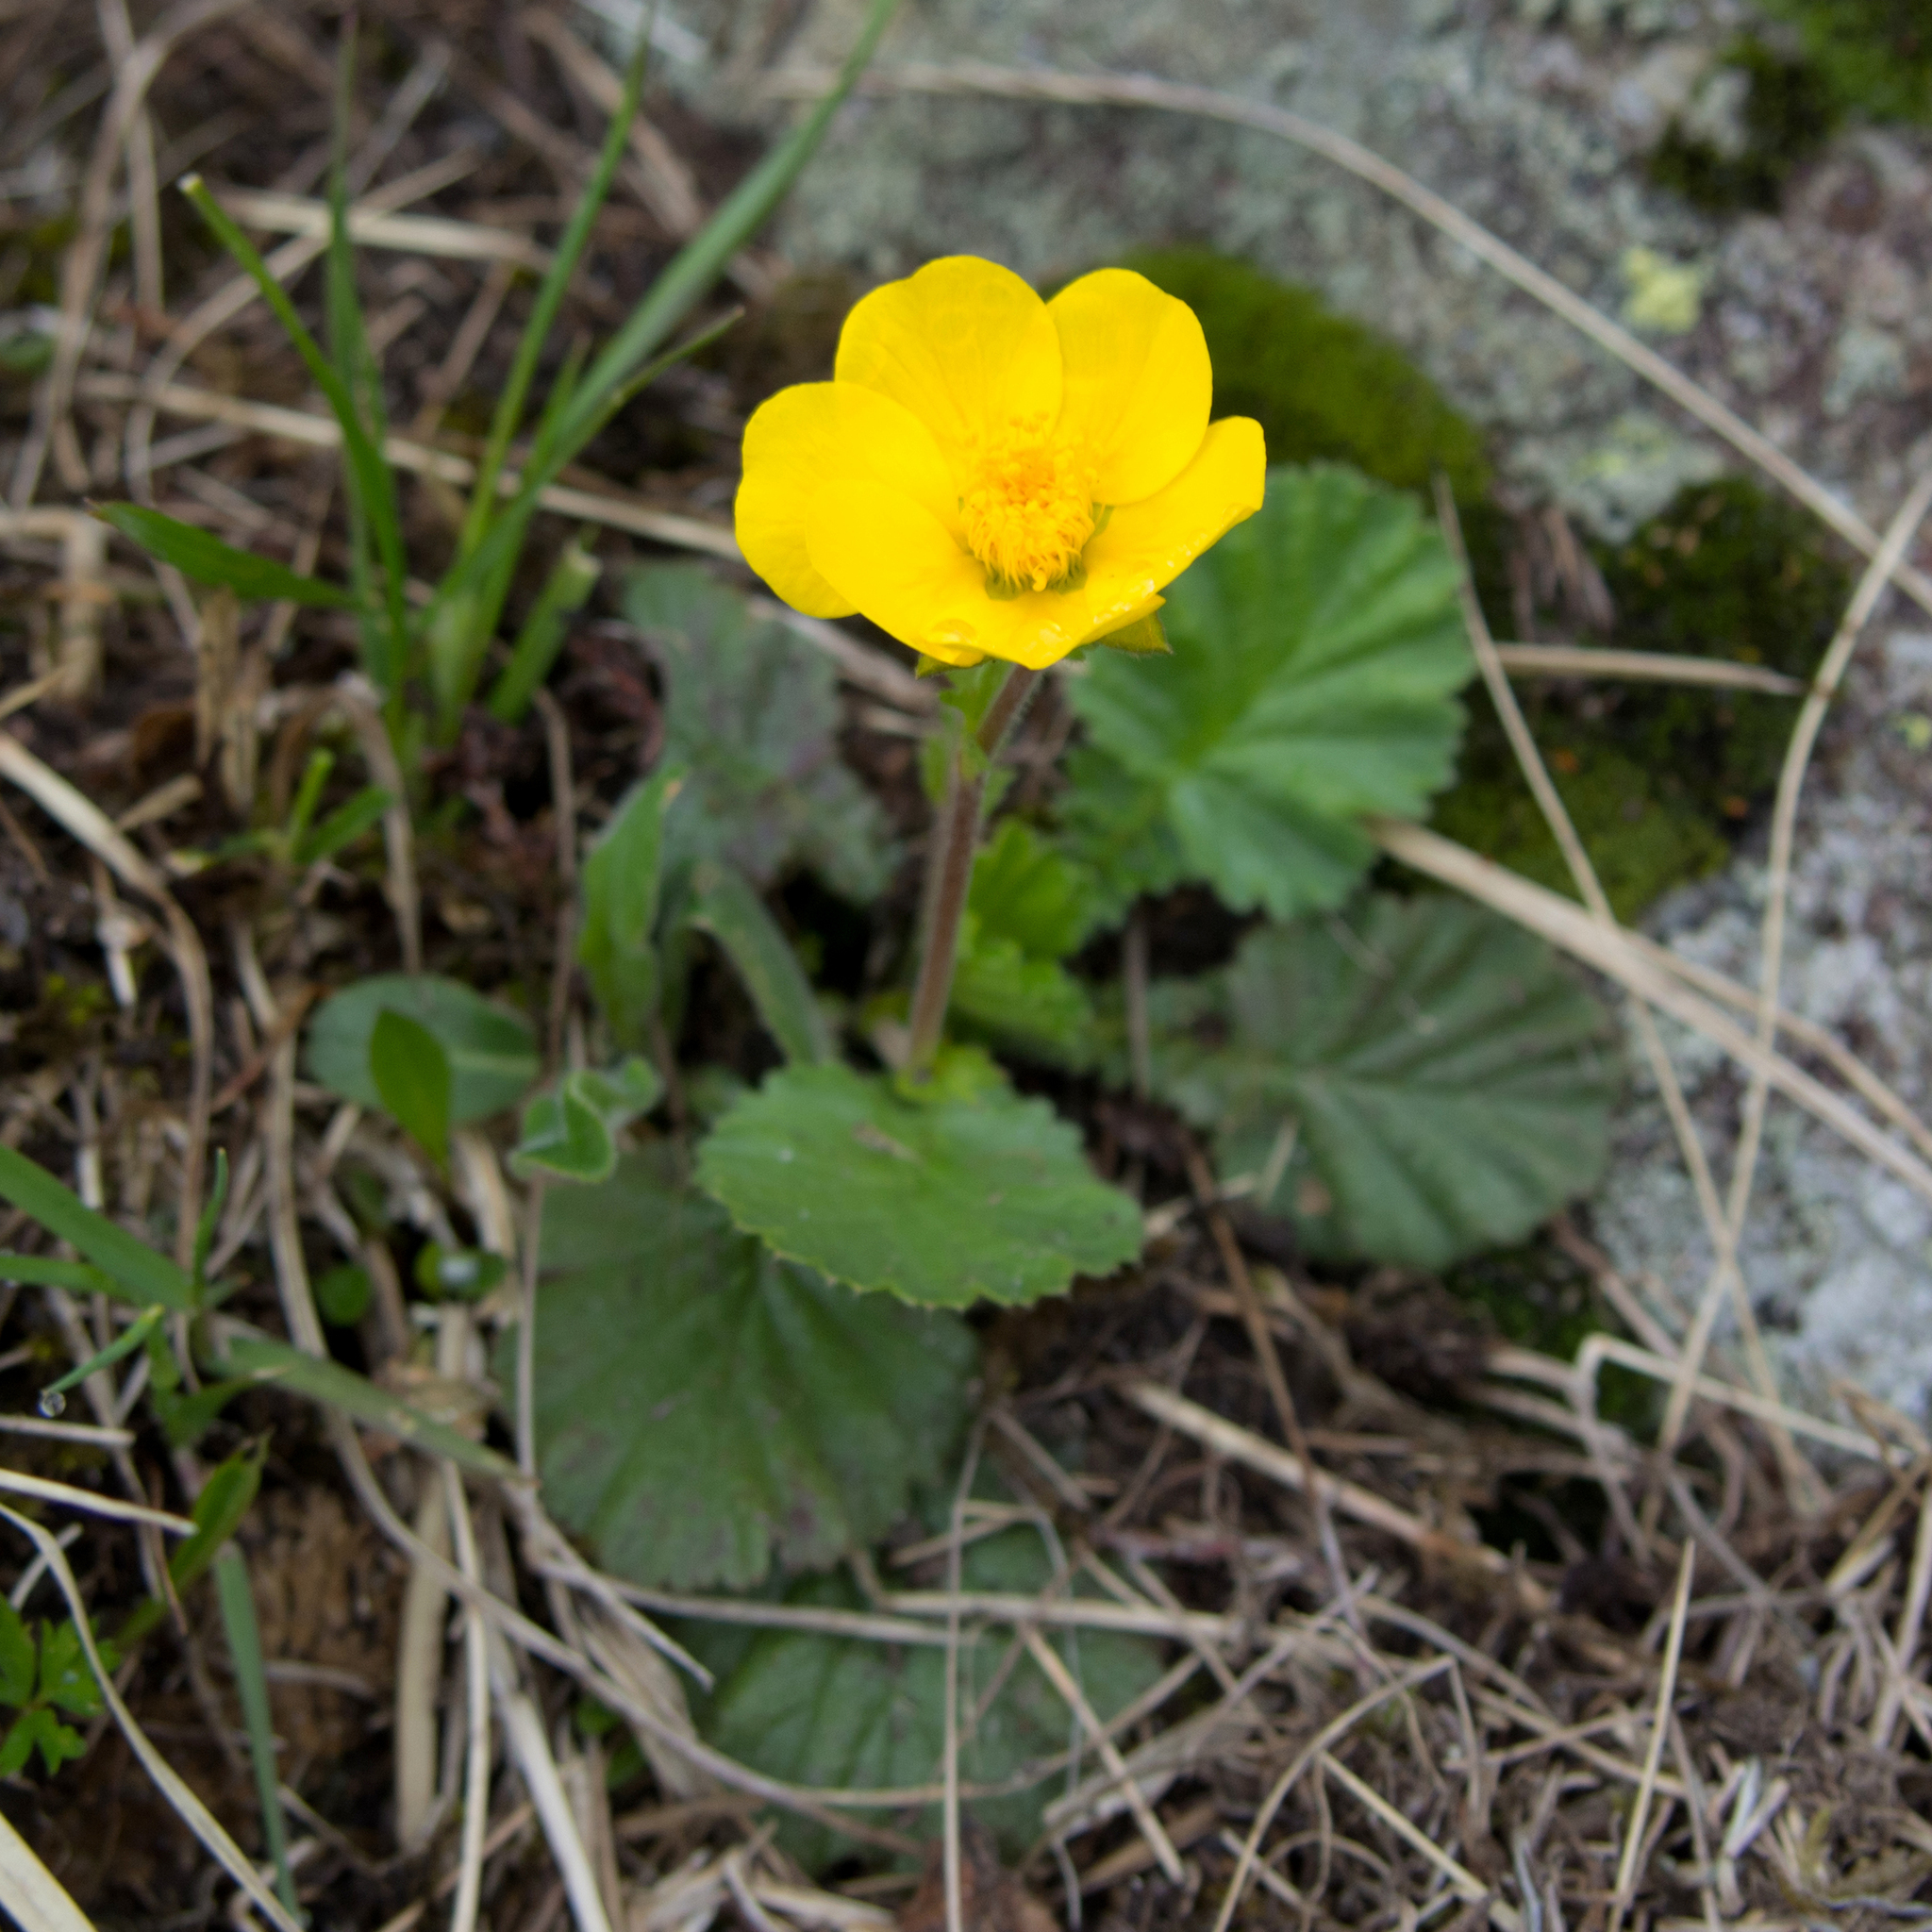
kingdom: Plantae
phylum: Tracheophyta
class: Magnoliopsida
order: Rosales
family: Rosaceae
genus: Geum
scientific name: Geum montanum
